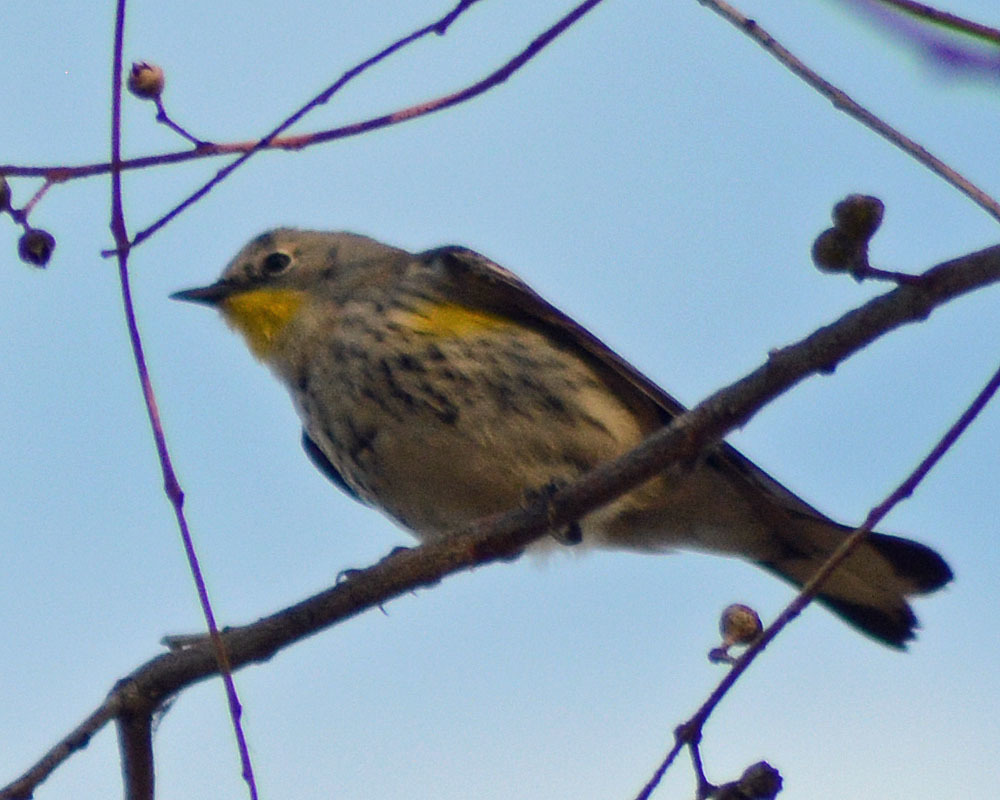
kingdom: Animalia
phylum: Chordata
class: Aves
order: Passeriformes
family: Parulidae
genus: Setophaga
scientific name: Setophaga coronata
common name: Myrtle warbler
